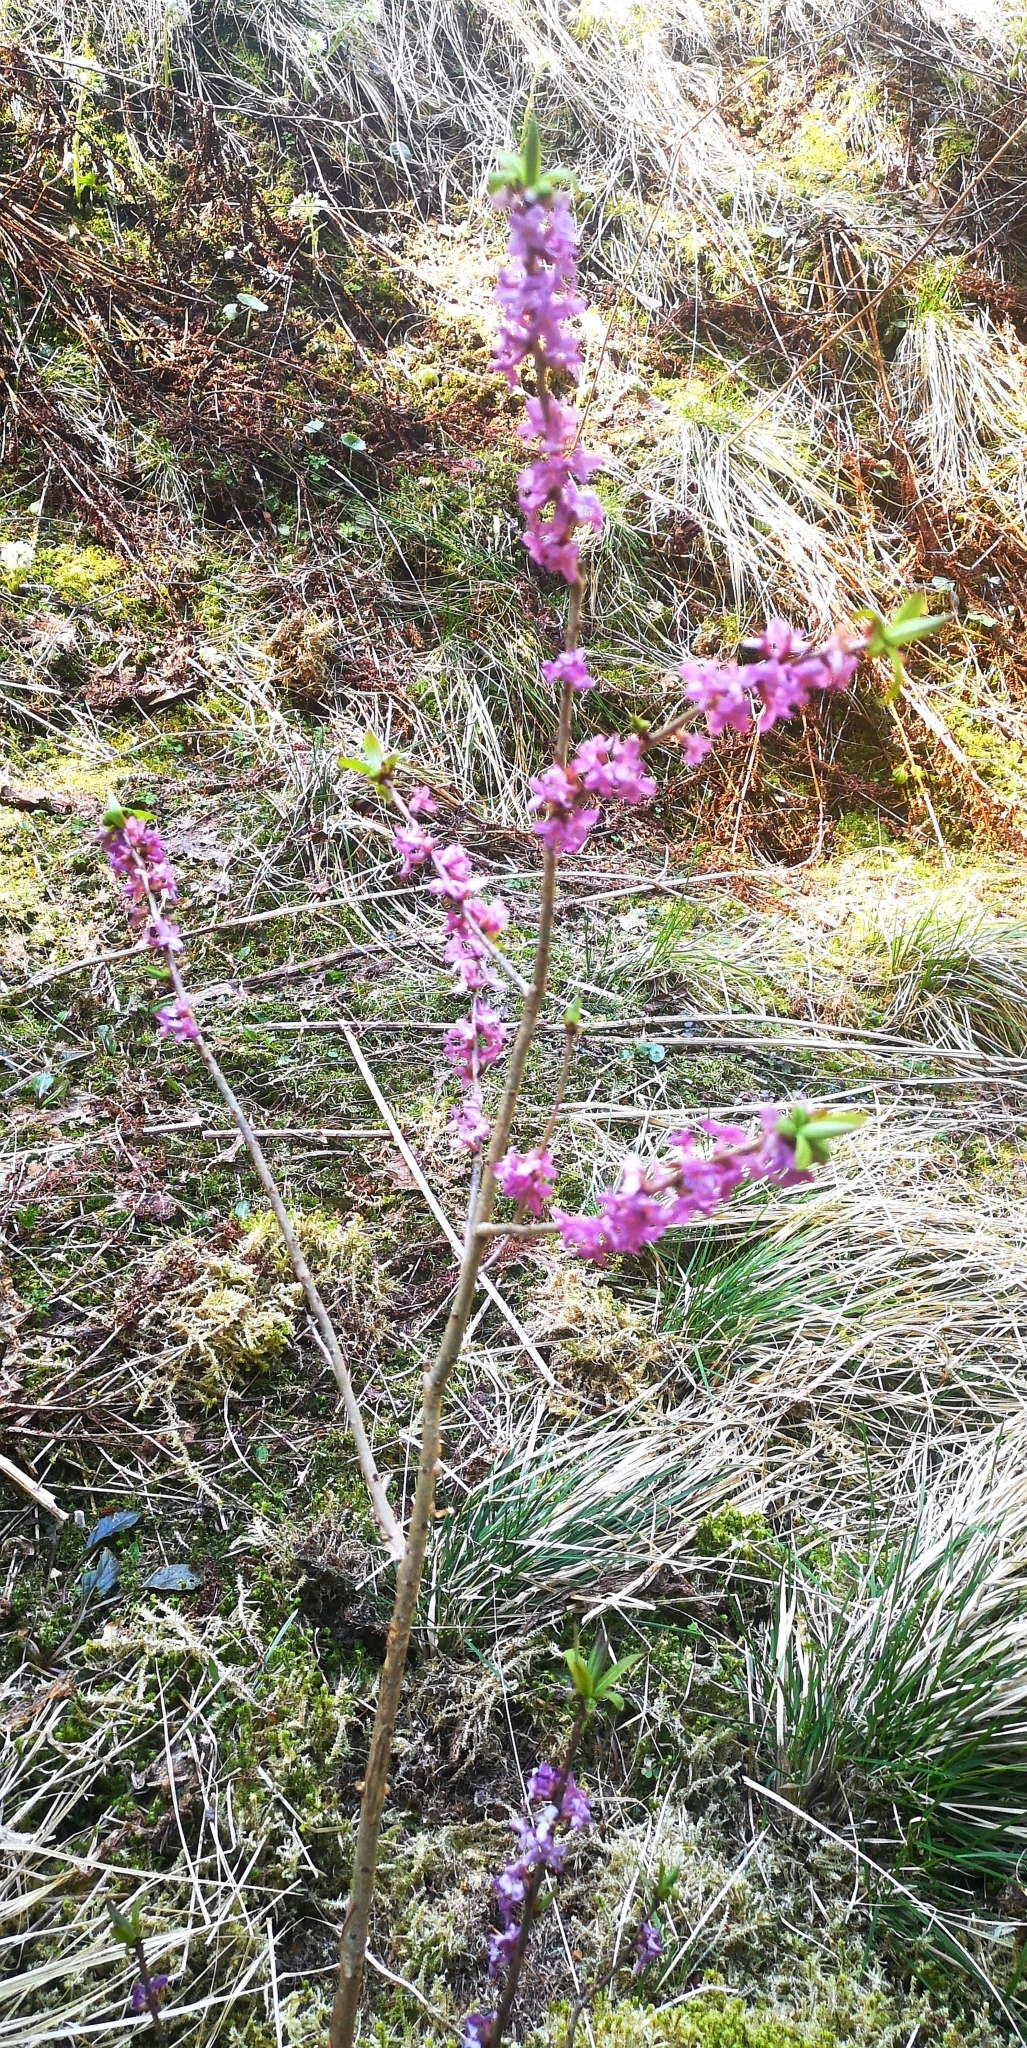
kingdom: Plantae
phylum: Tracheophyta
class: Magnoliopsida
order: Malvales
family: Thymelaeaceae
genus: Daphne
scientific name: Daphne mezereum
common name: Mezereon
